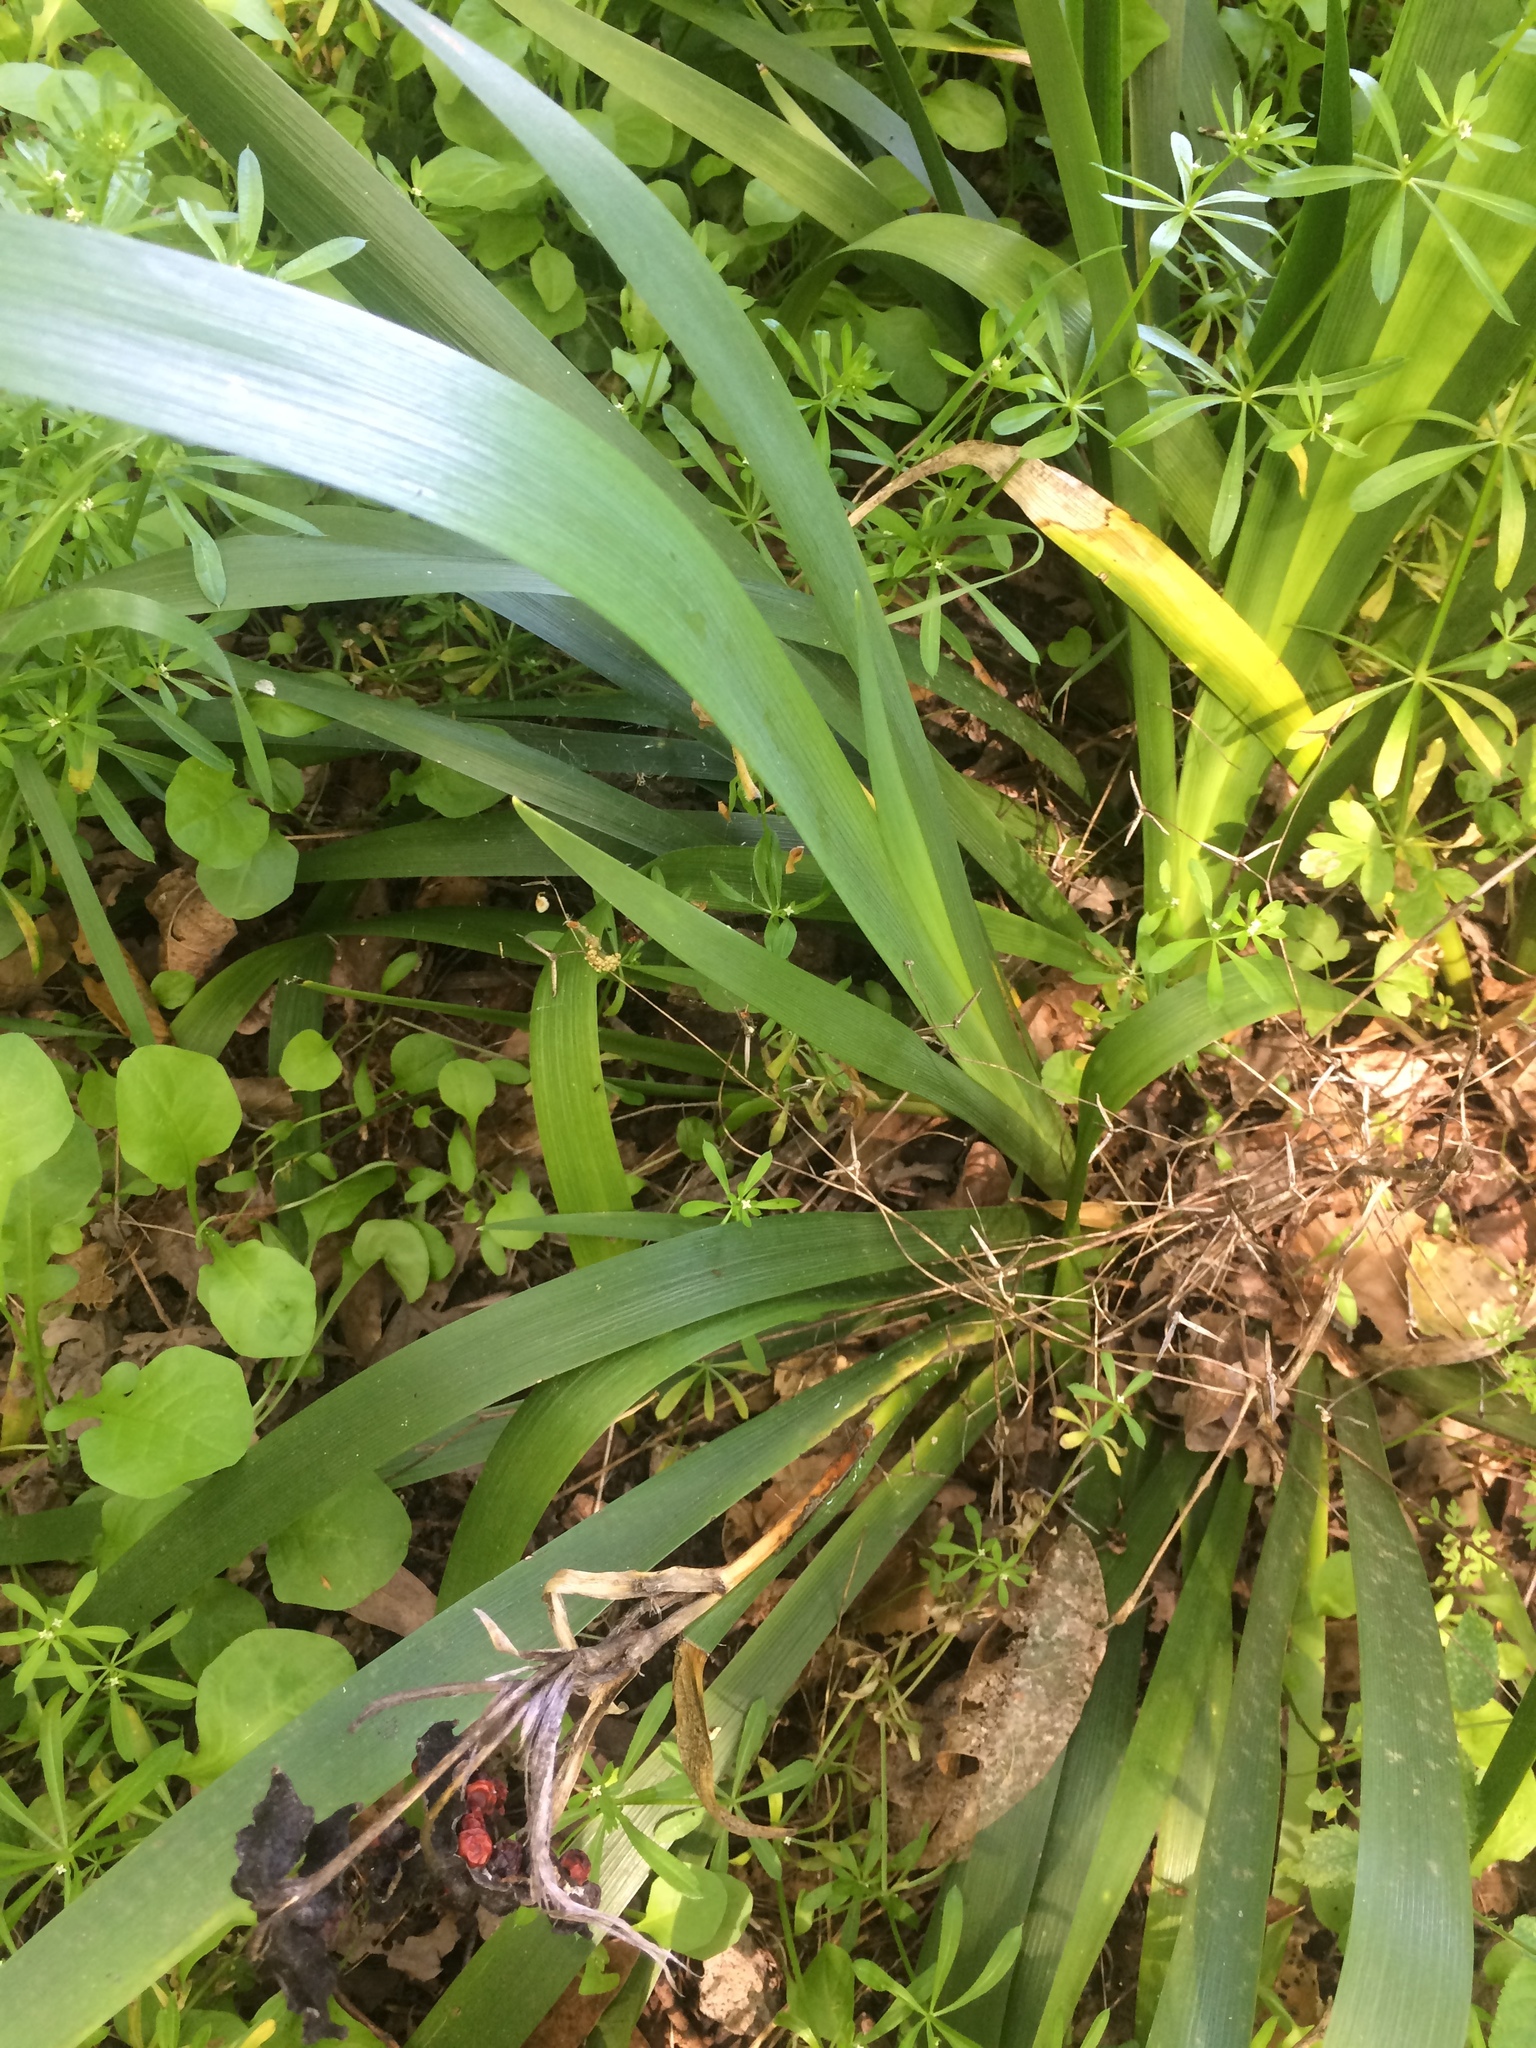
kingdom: Plantae
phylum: Tracheophyta
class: Liliopsida
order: Asparagales
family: Iridaceae
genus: Iris
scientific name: Iris foetidissima
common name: Stinking iris
